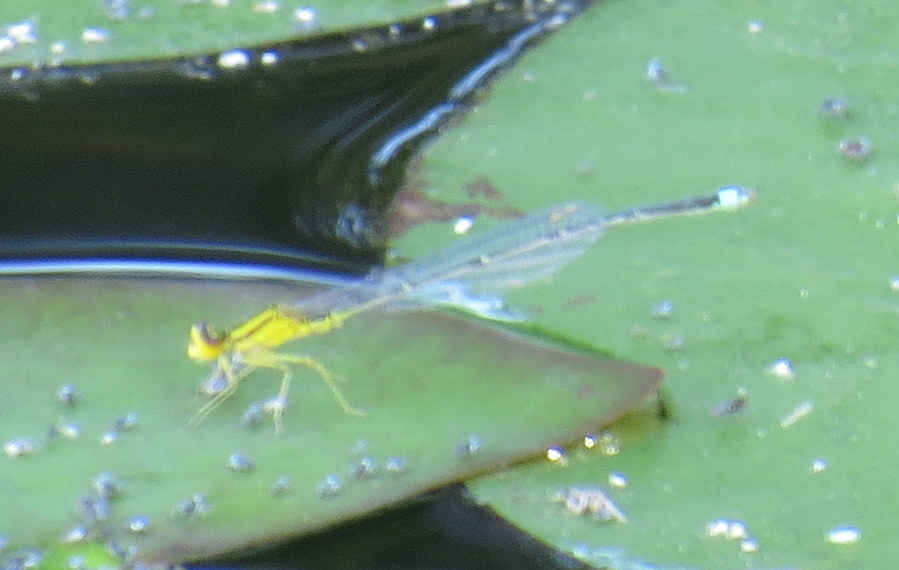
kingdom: Animalia
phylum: Arthropoda
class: Insecta
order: Odonata
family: Coenagrionidae
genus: Enallagma
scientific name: Enallagma vesperum
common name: Vesper bluet
